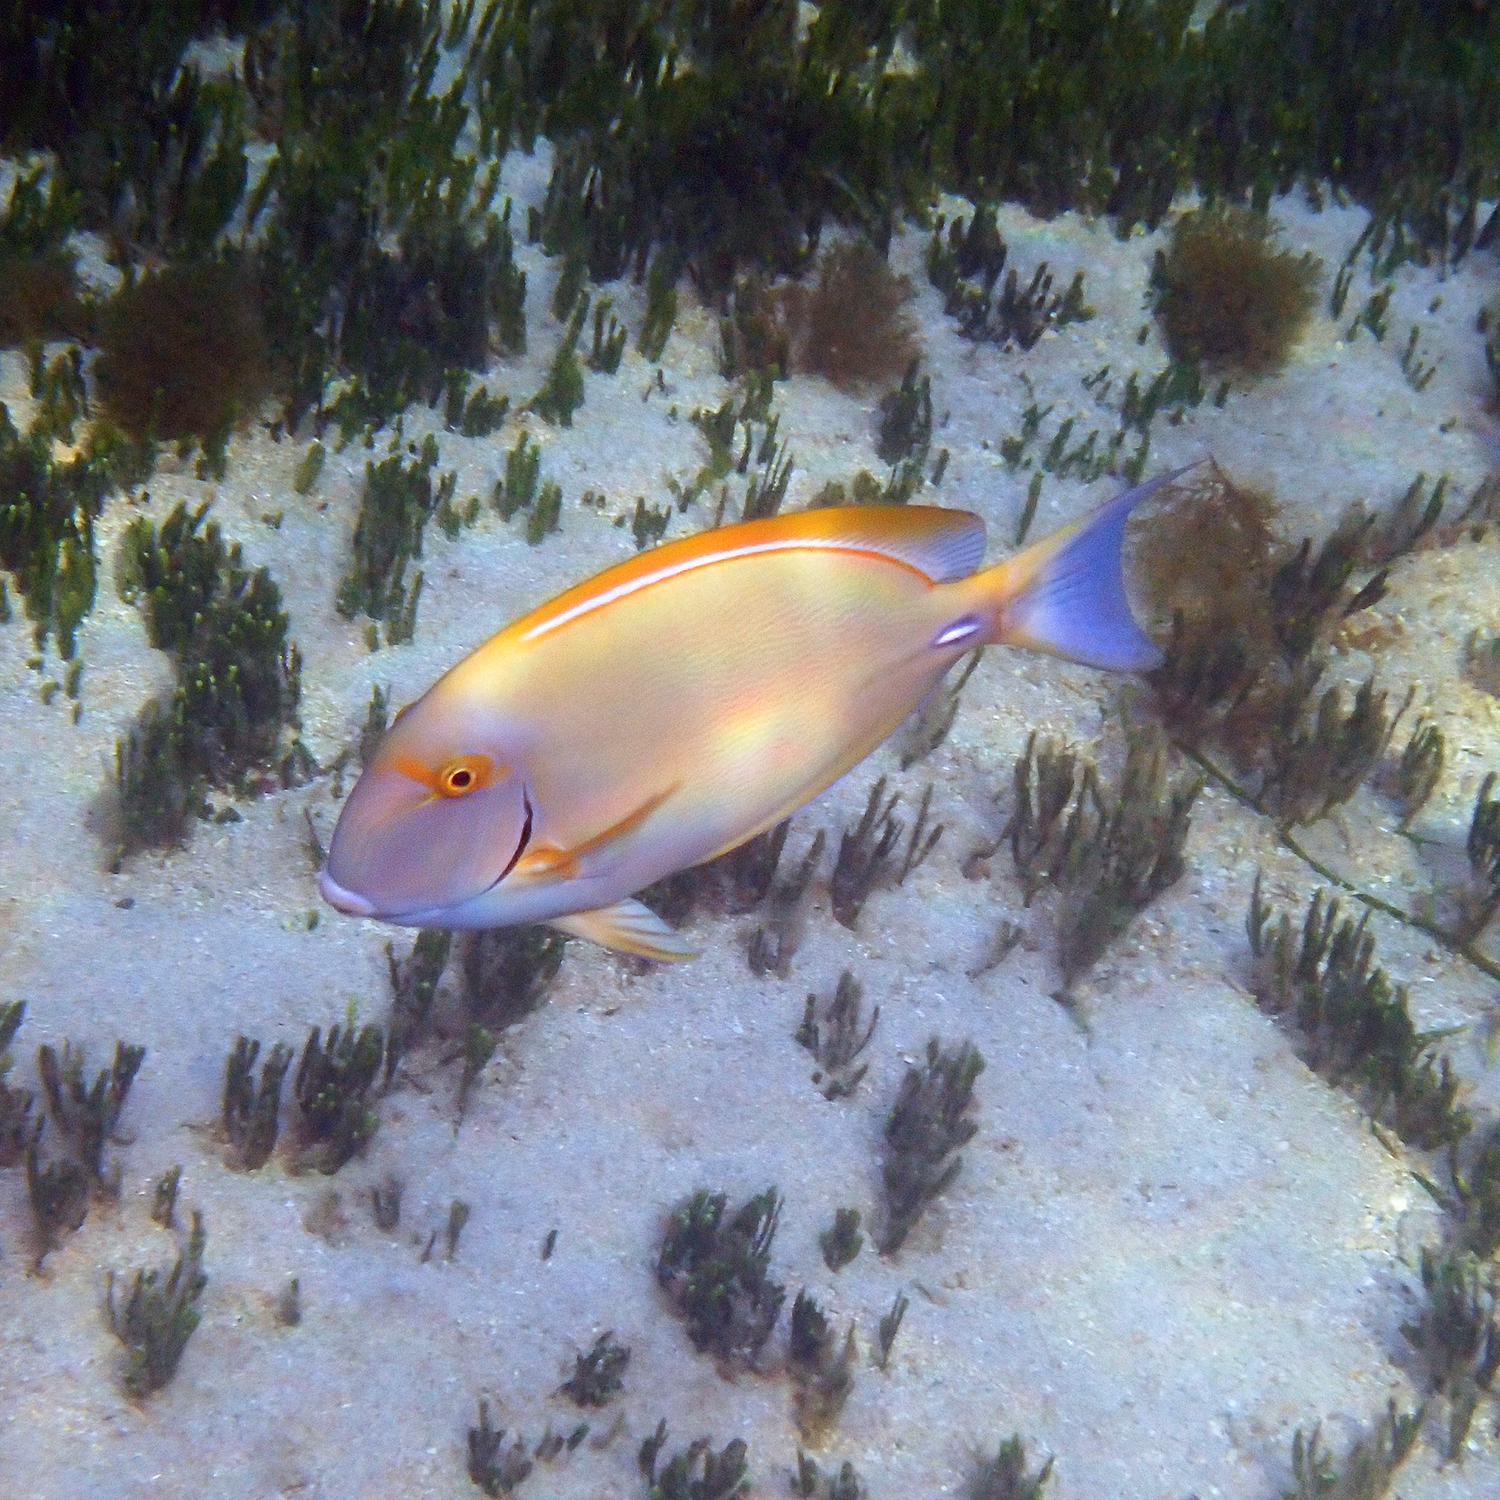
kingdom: Animalia
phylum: Chordata
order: Perciformes
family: Acanthuridae
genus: Acanthurus
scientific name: Acanthurus dussumieri
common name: Dussumier's surgeonfish
